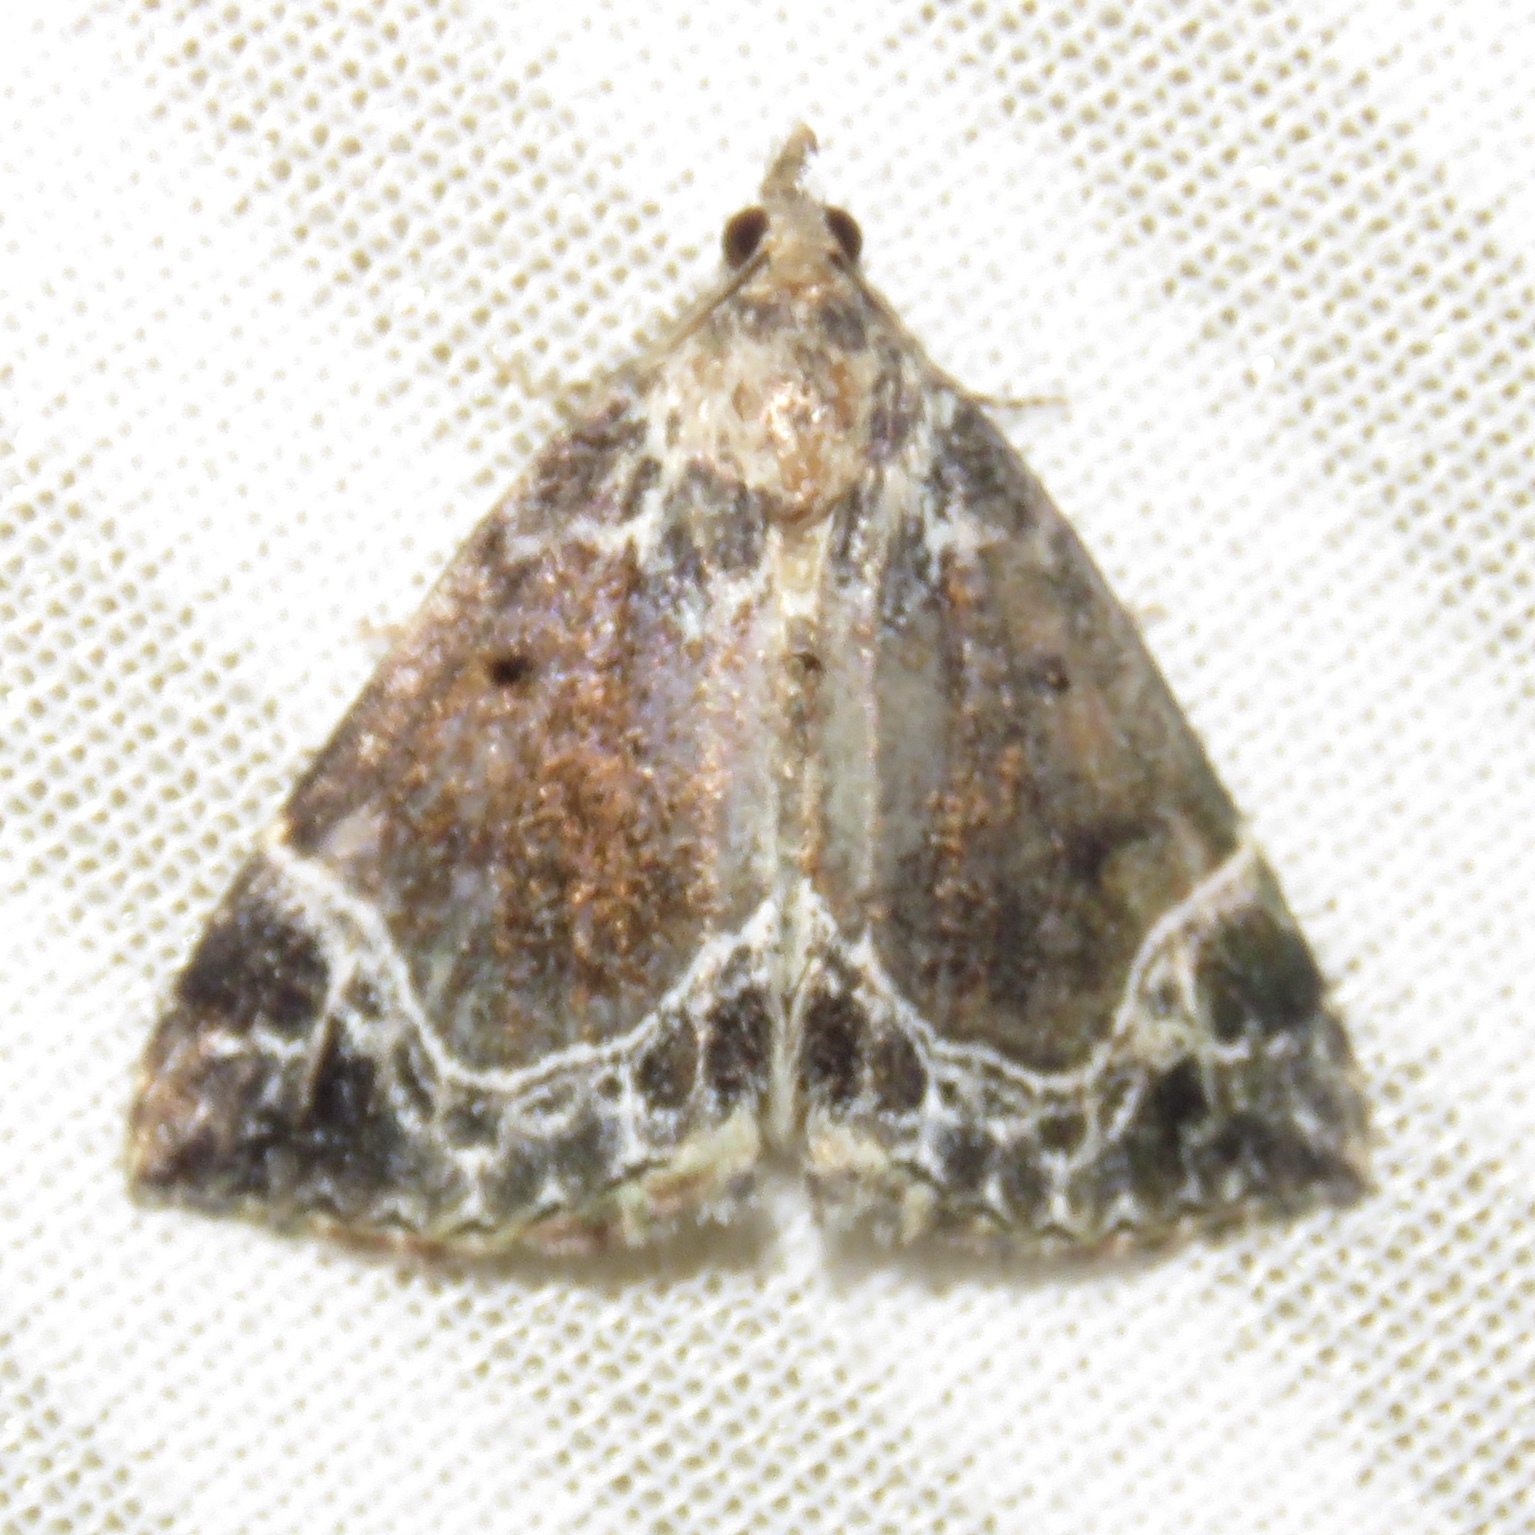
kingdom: Animalia
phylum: Arthropoda
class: Insecta
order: Lepidoptera
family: Erebidae
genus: Hypena
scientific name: Hypena abalienalis
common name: White-lined snout
